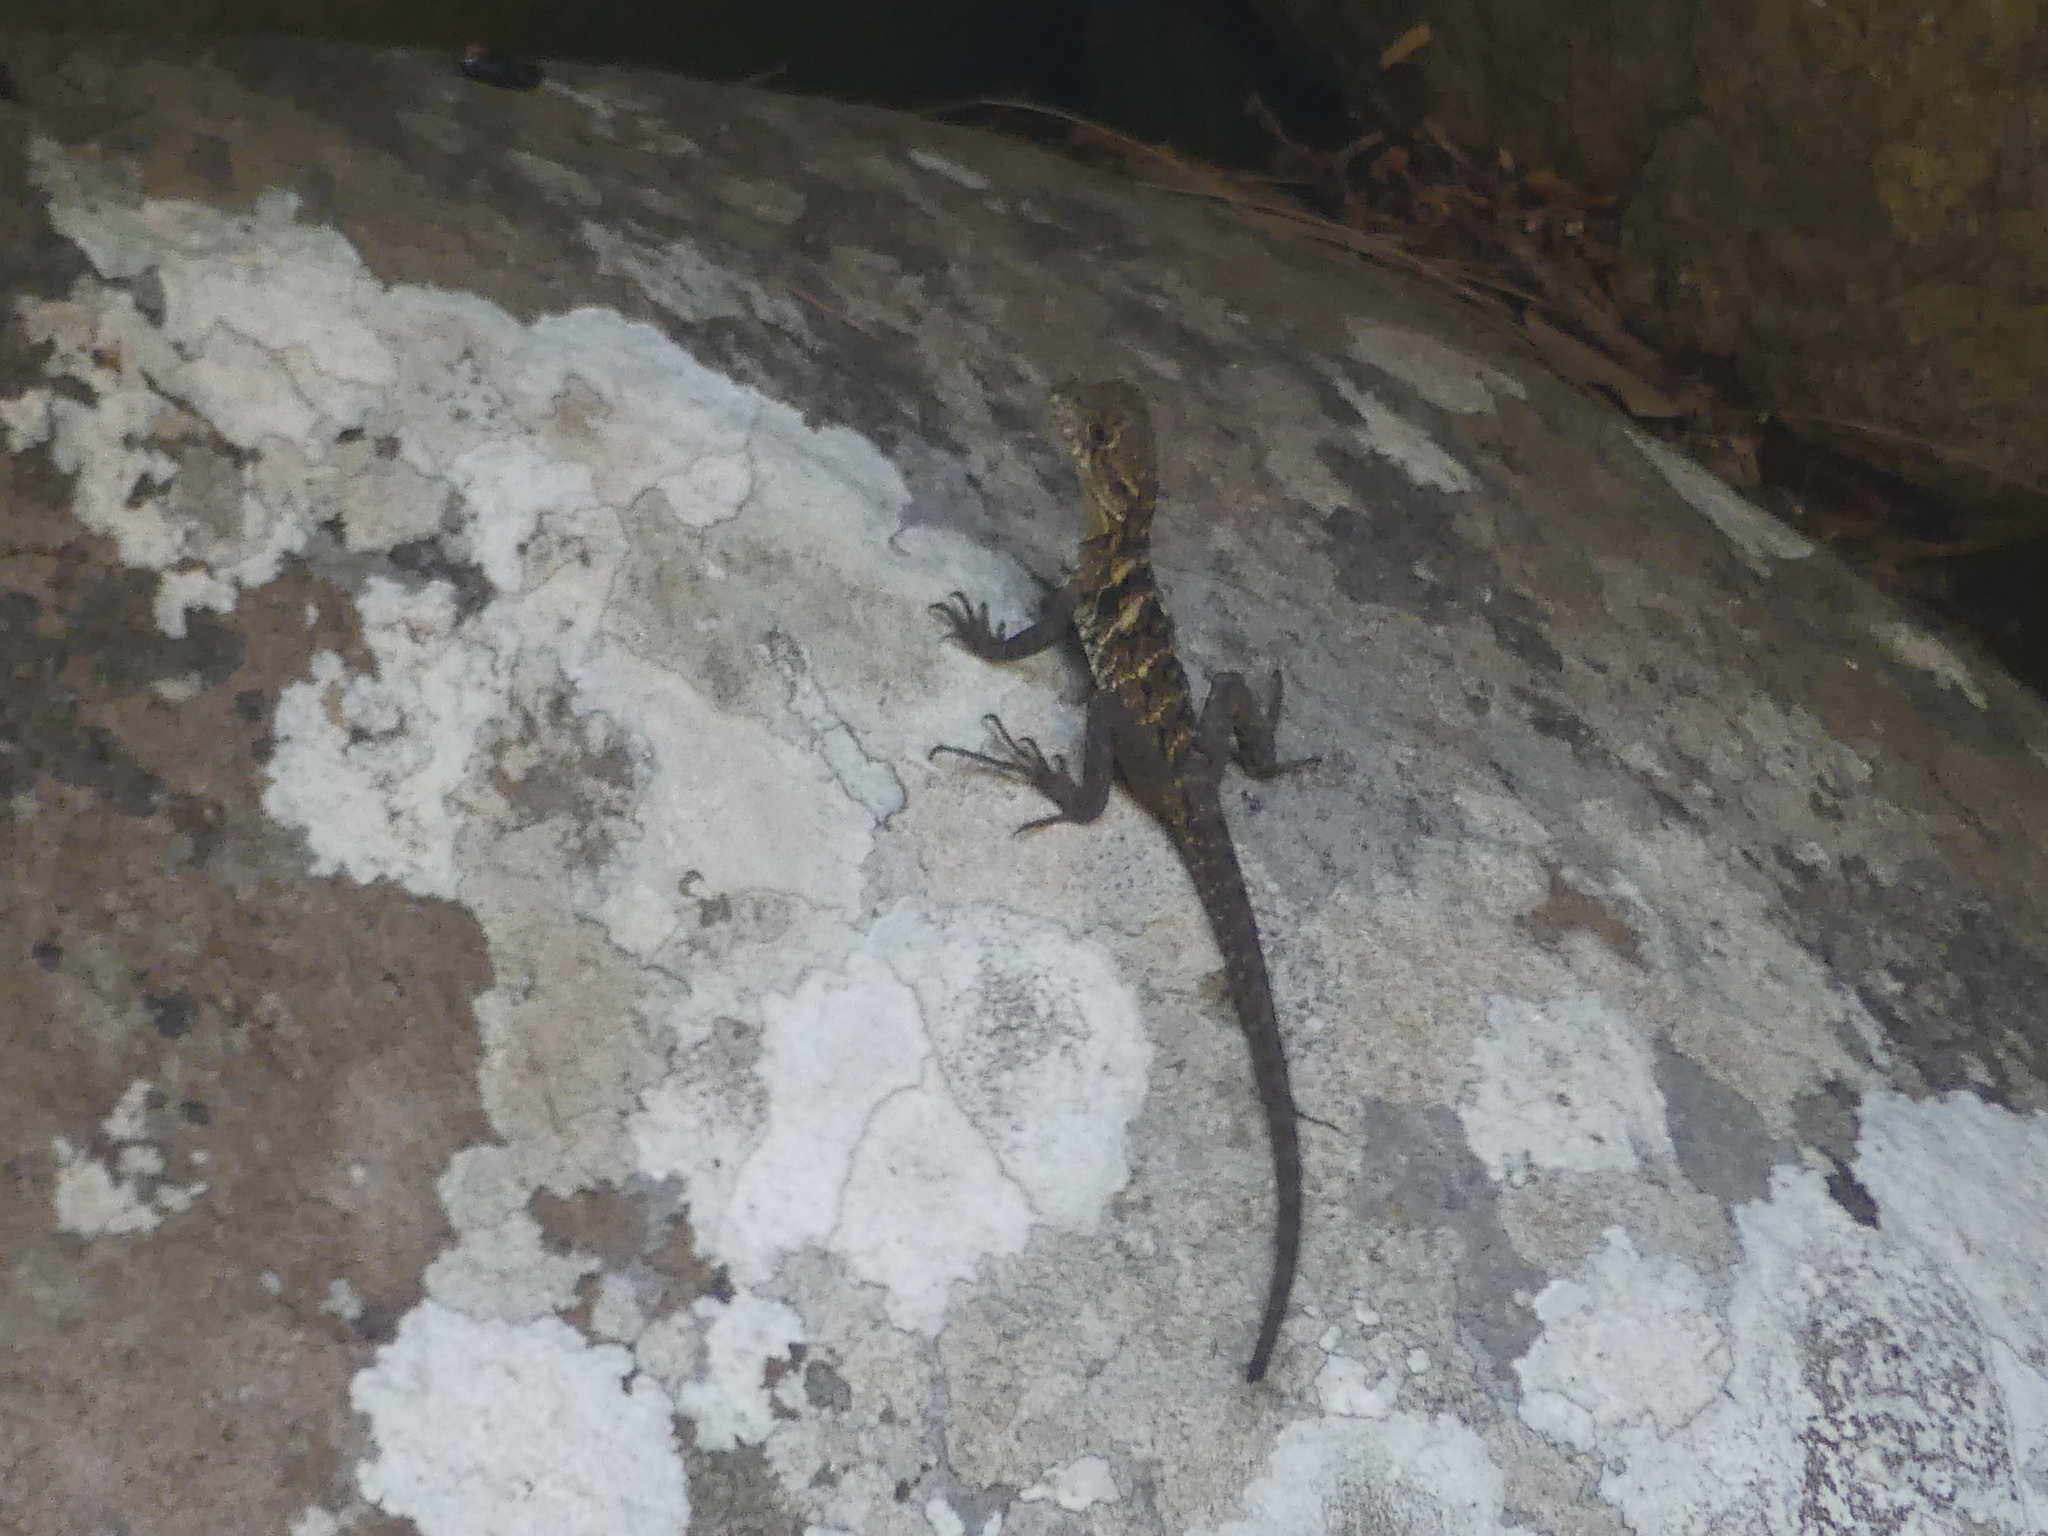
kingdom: Animalia
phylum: Chordata
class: Squamata
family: Agamidae
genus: Intellagama
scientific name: Intellagama lesueurii
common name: Eastern water dragon
